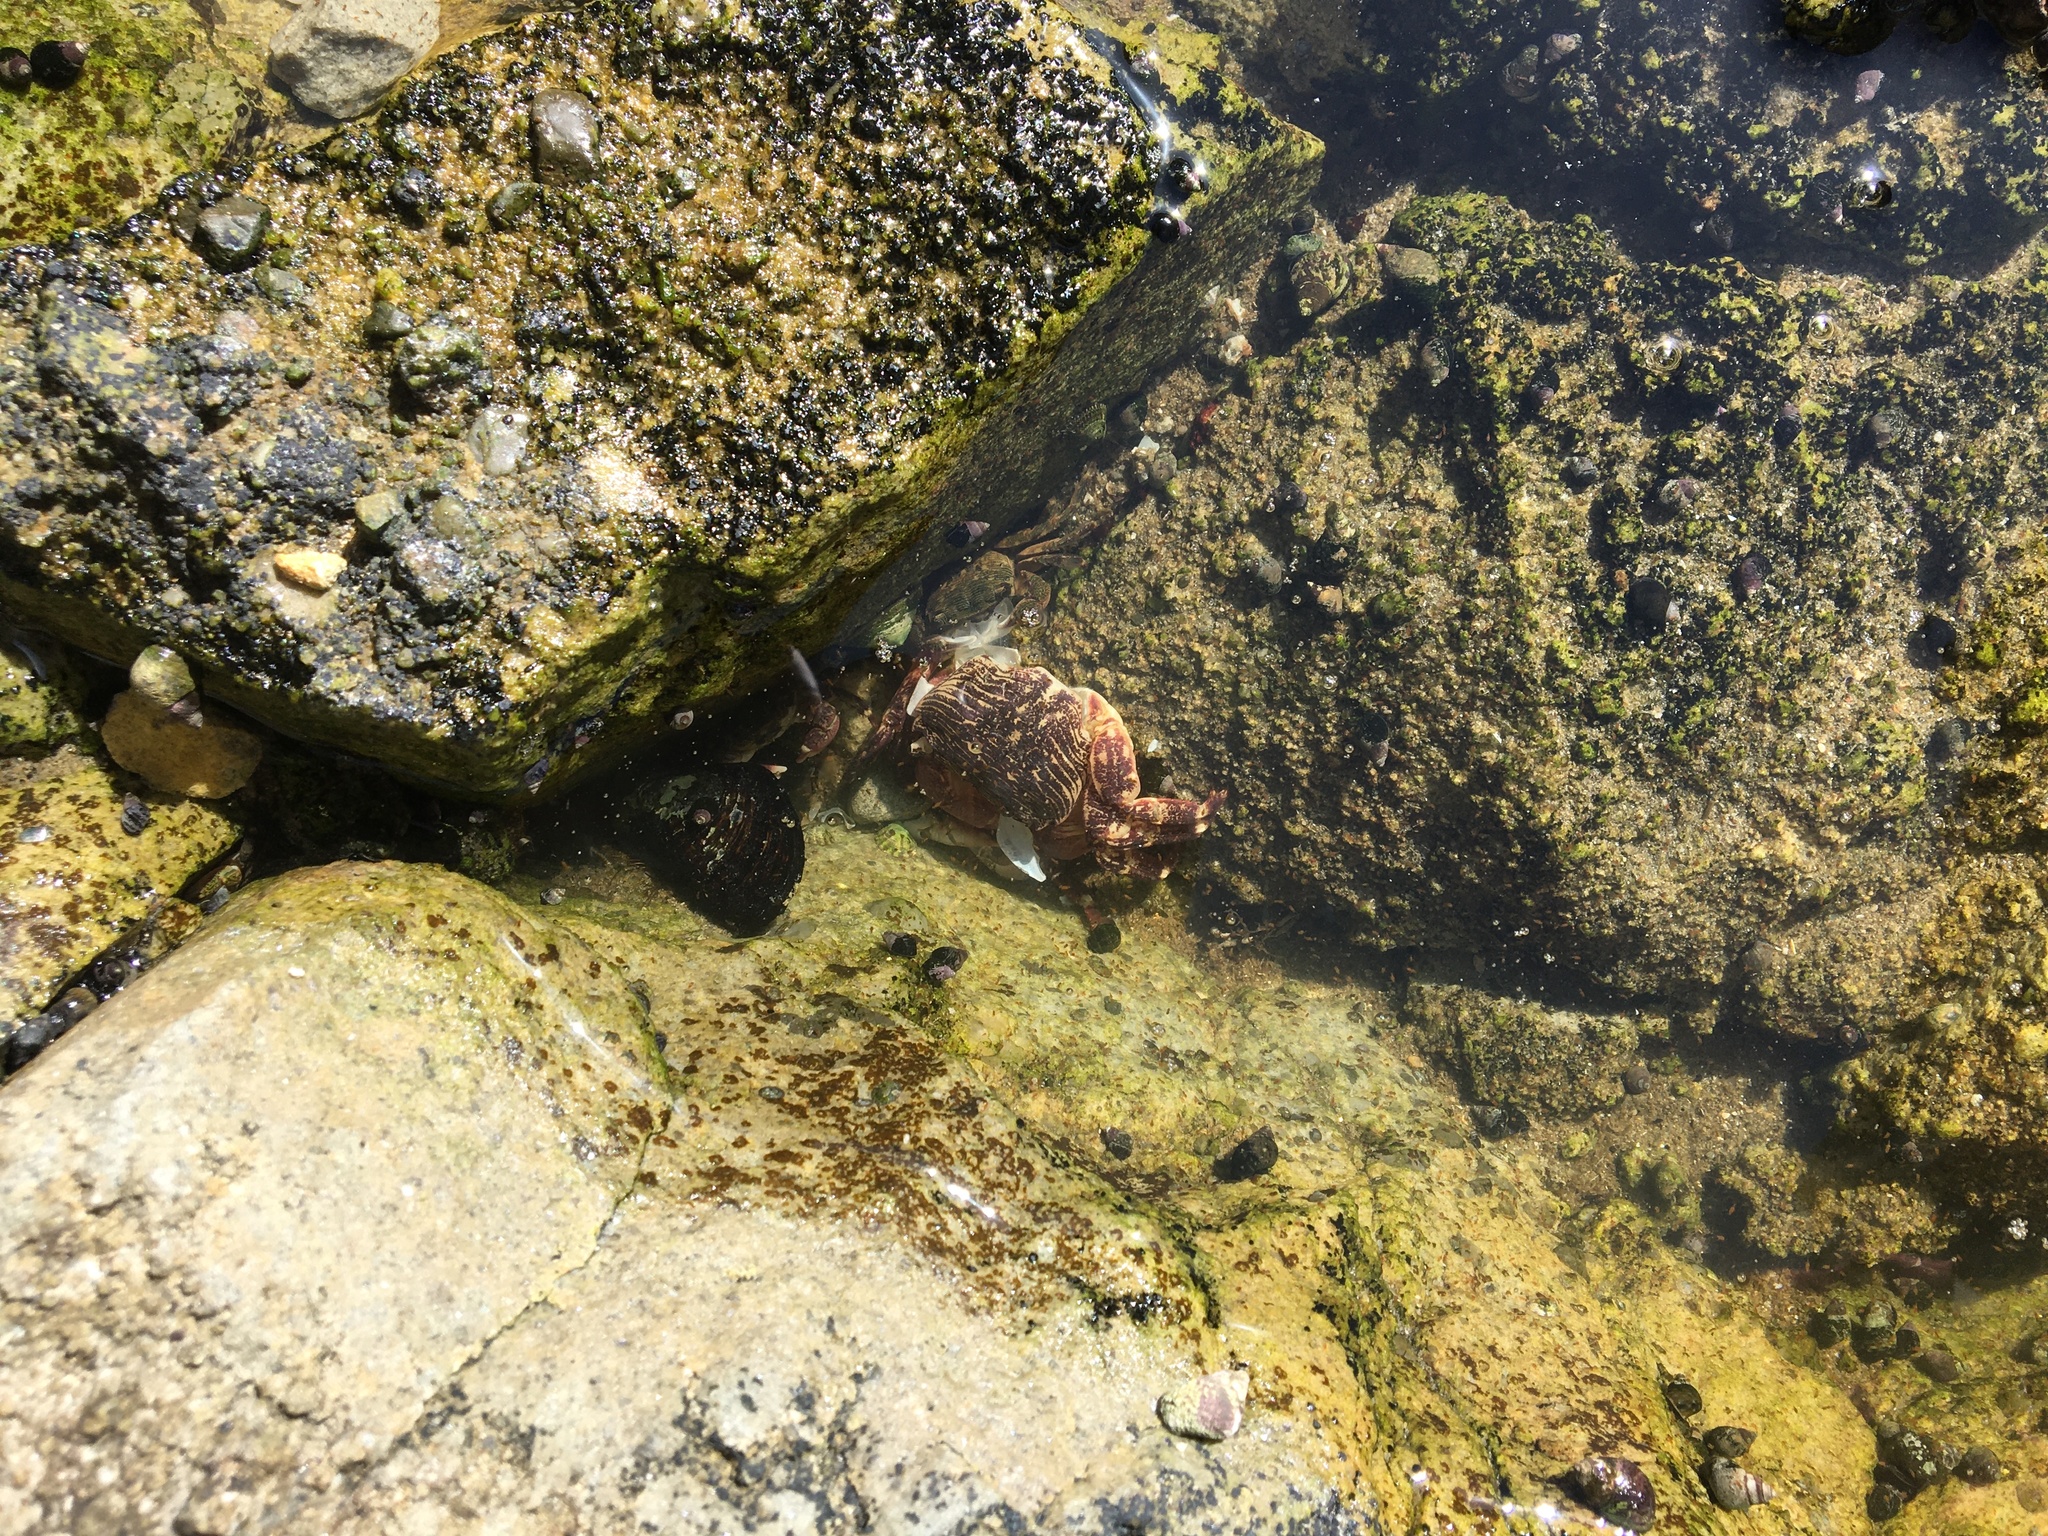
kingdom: Animalia
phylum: Arthropoda
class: Malacostraca
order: Decapoda
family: Grapsidae
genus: Pachygrapsus
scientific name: Pachygrapsus crassipes
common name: Striped shore crab
